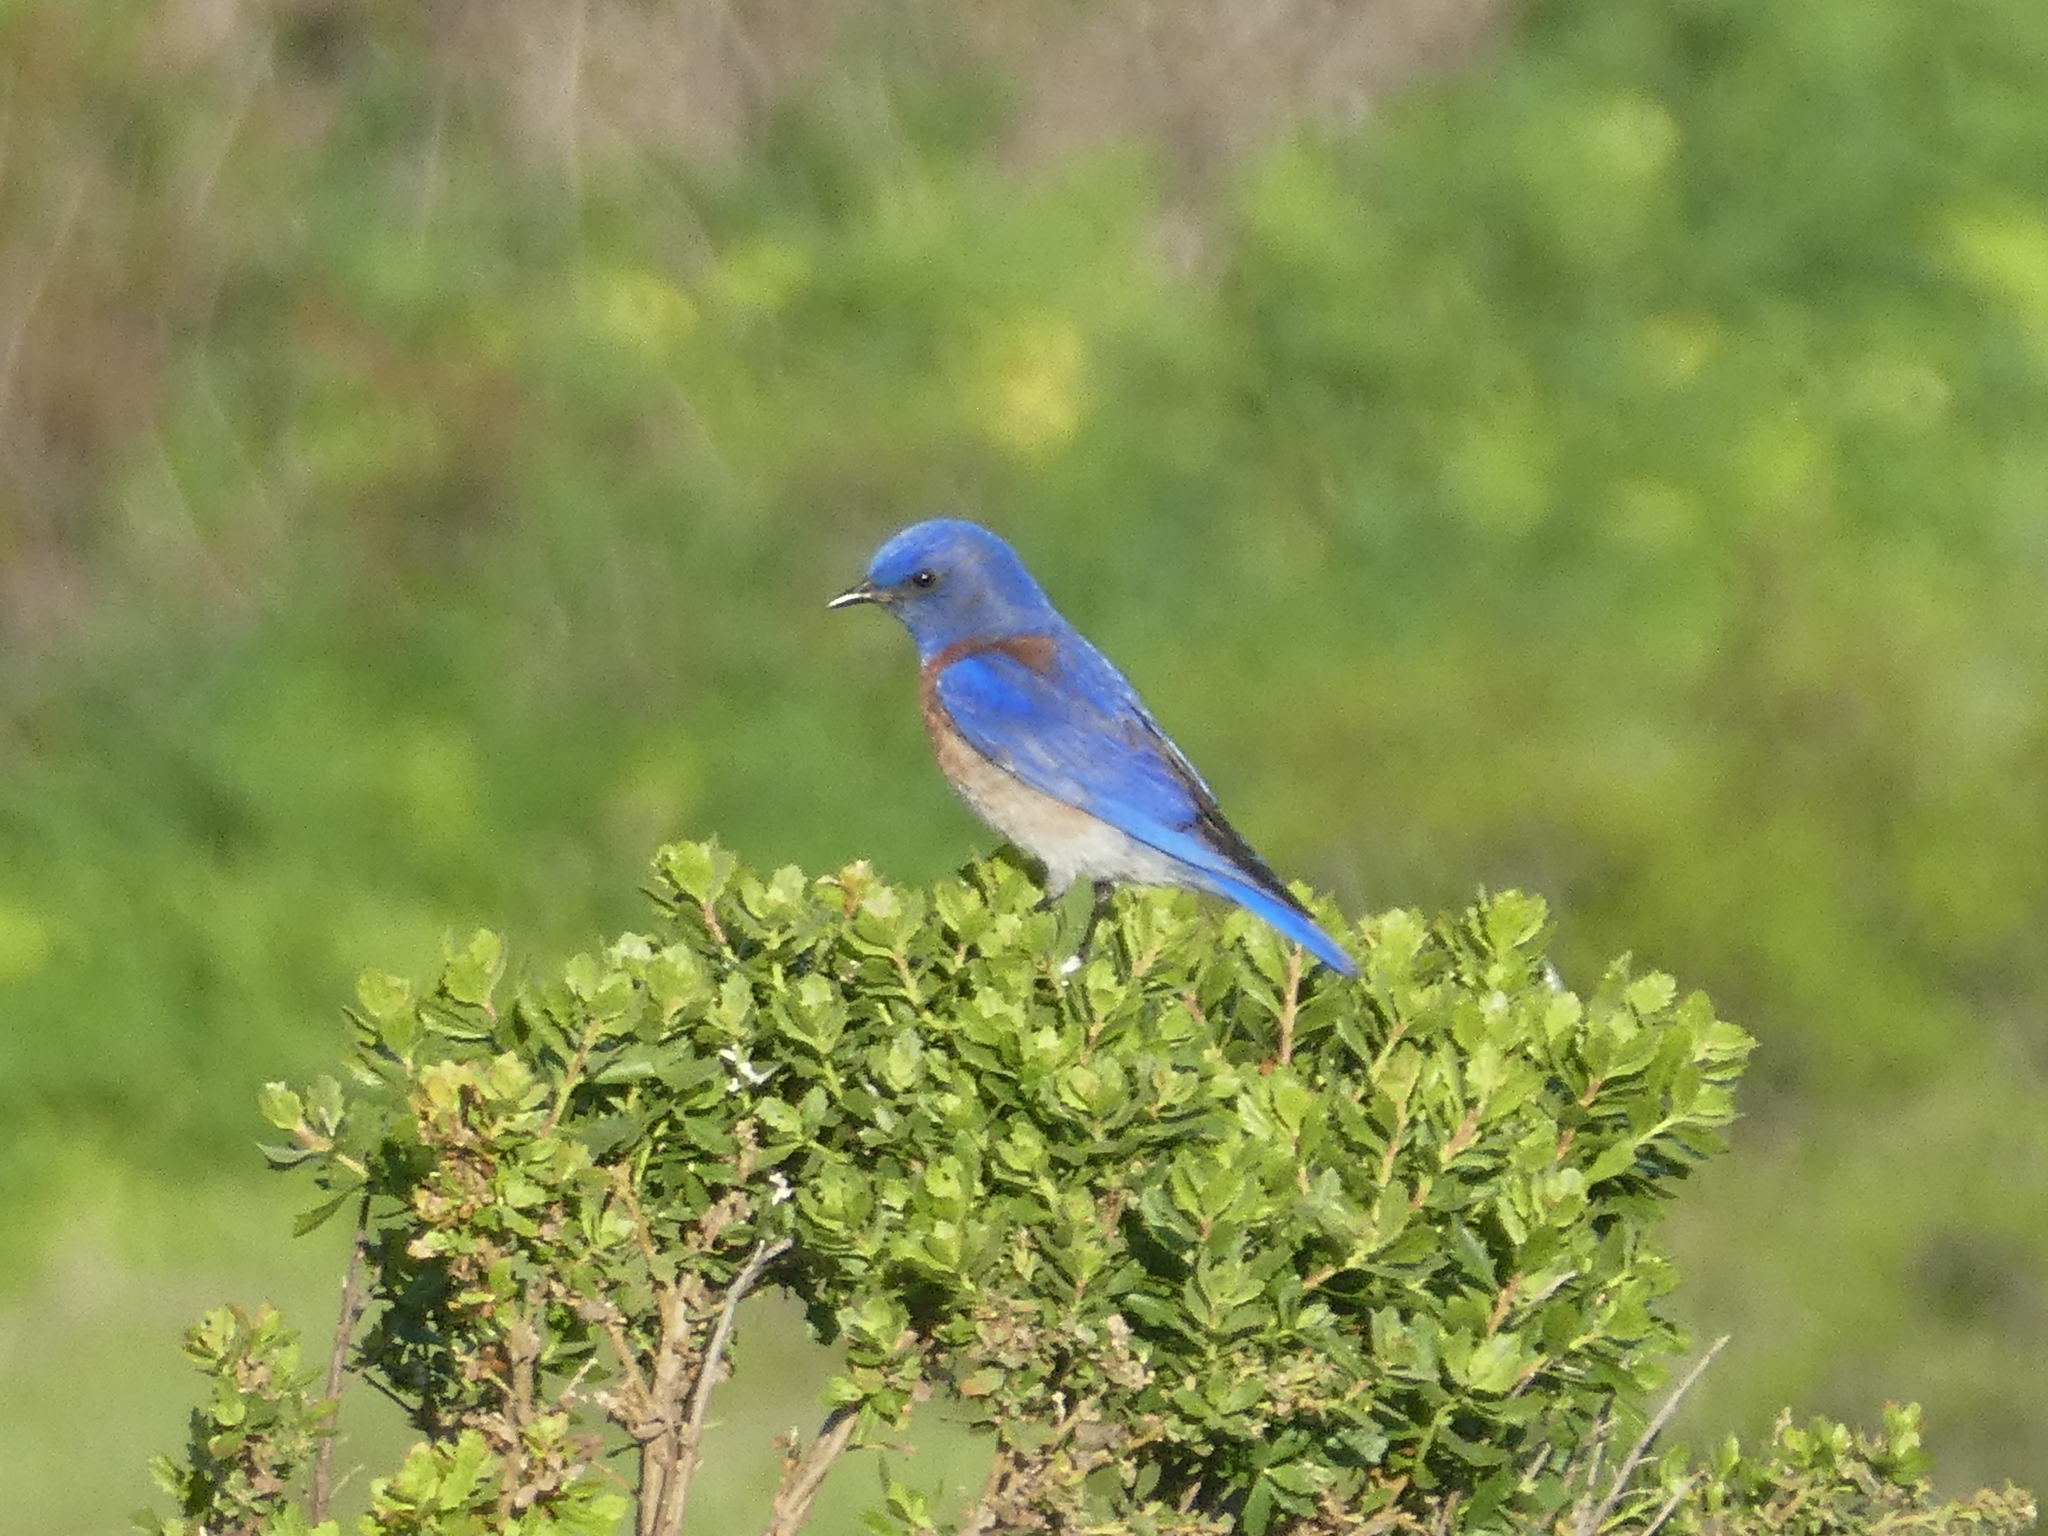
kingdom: Animalia
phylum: Chordata
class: Aves
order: Passeriformes
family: Turdidae
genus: Sialia
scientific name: Sialia mexicana
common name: Western bluebird
